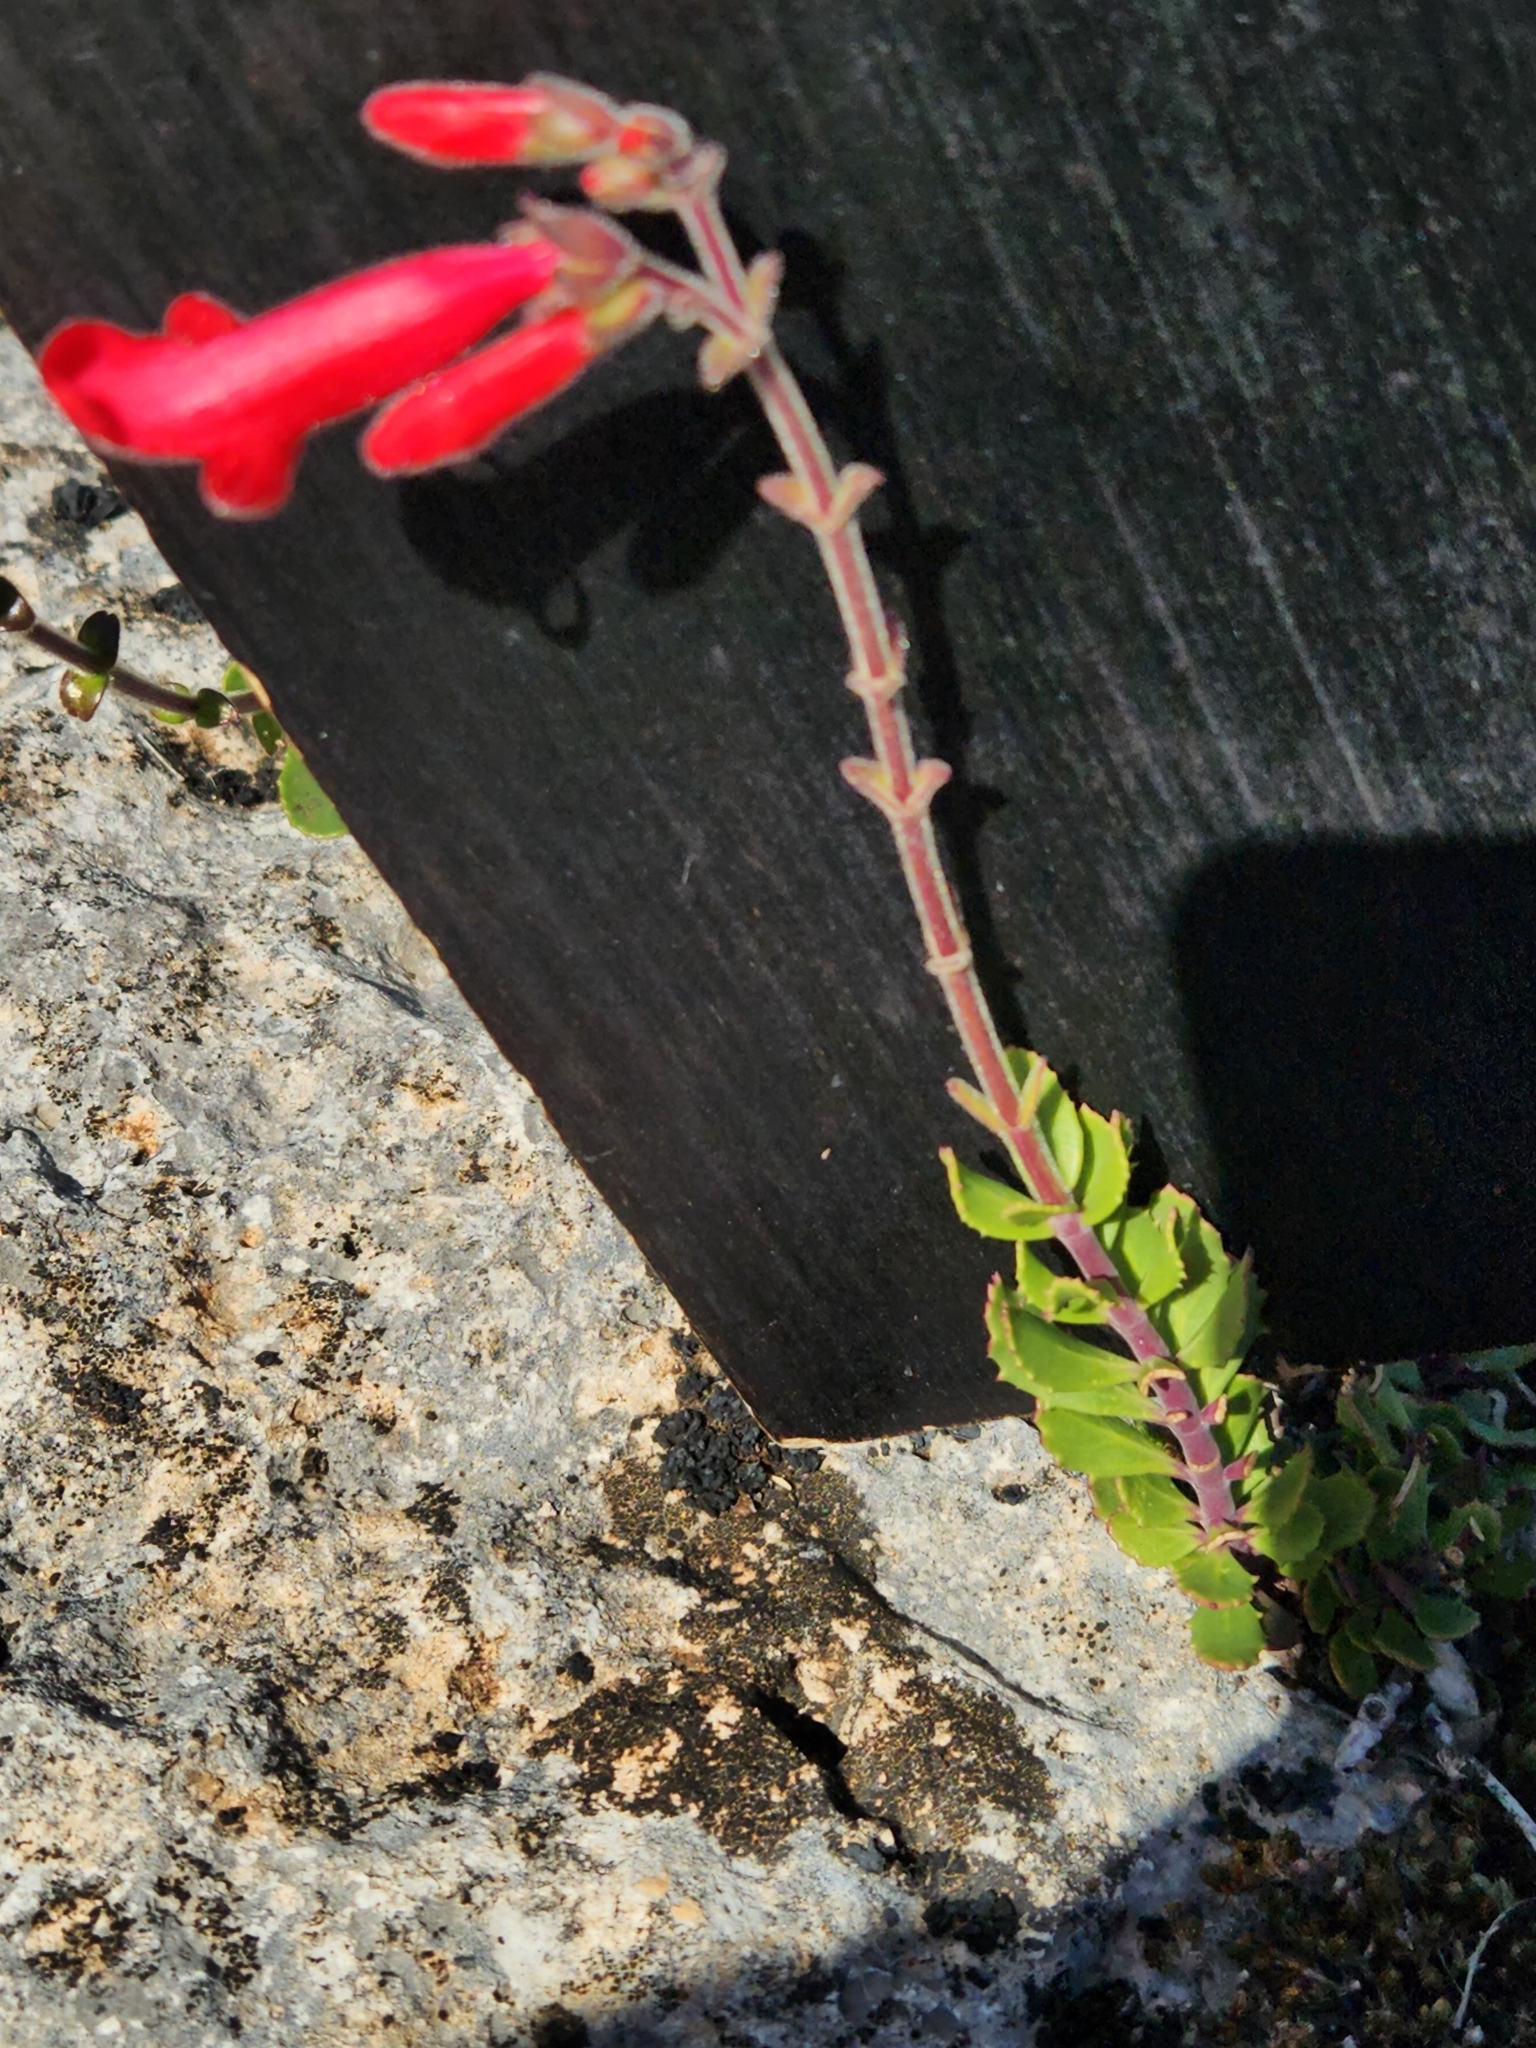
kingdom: Plantae
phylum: Tracheophyta
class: Magnoliopsida
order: Lamiales
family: Plantaginaceae
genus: Penstemon
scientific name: Penstemon baccharifolius
